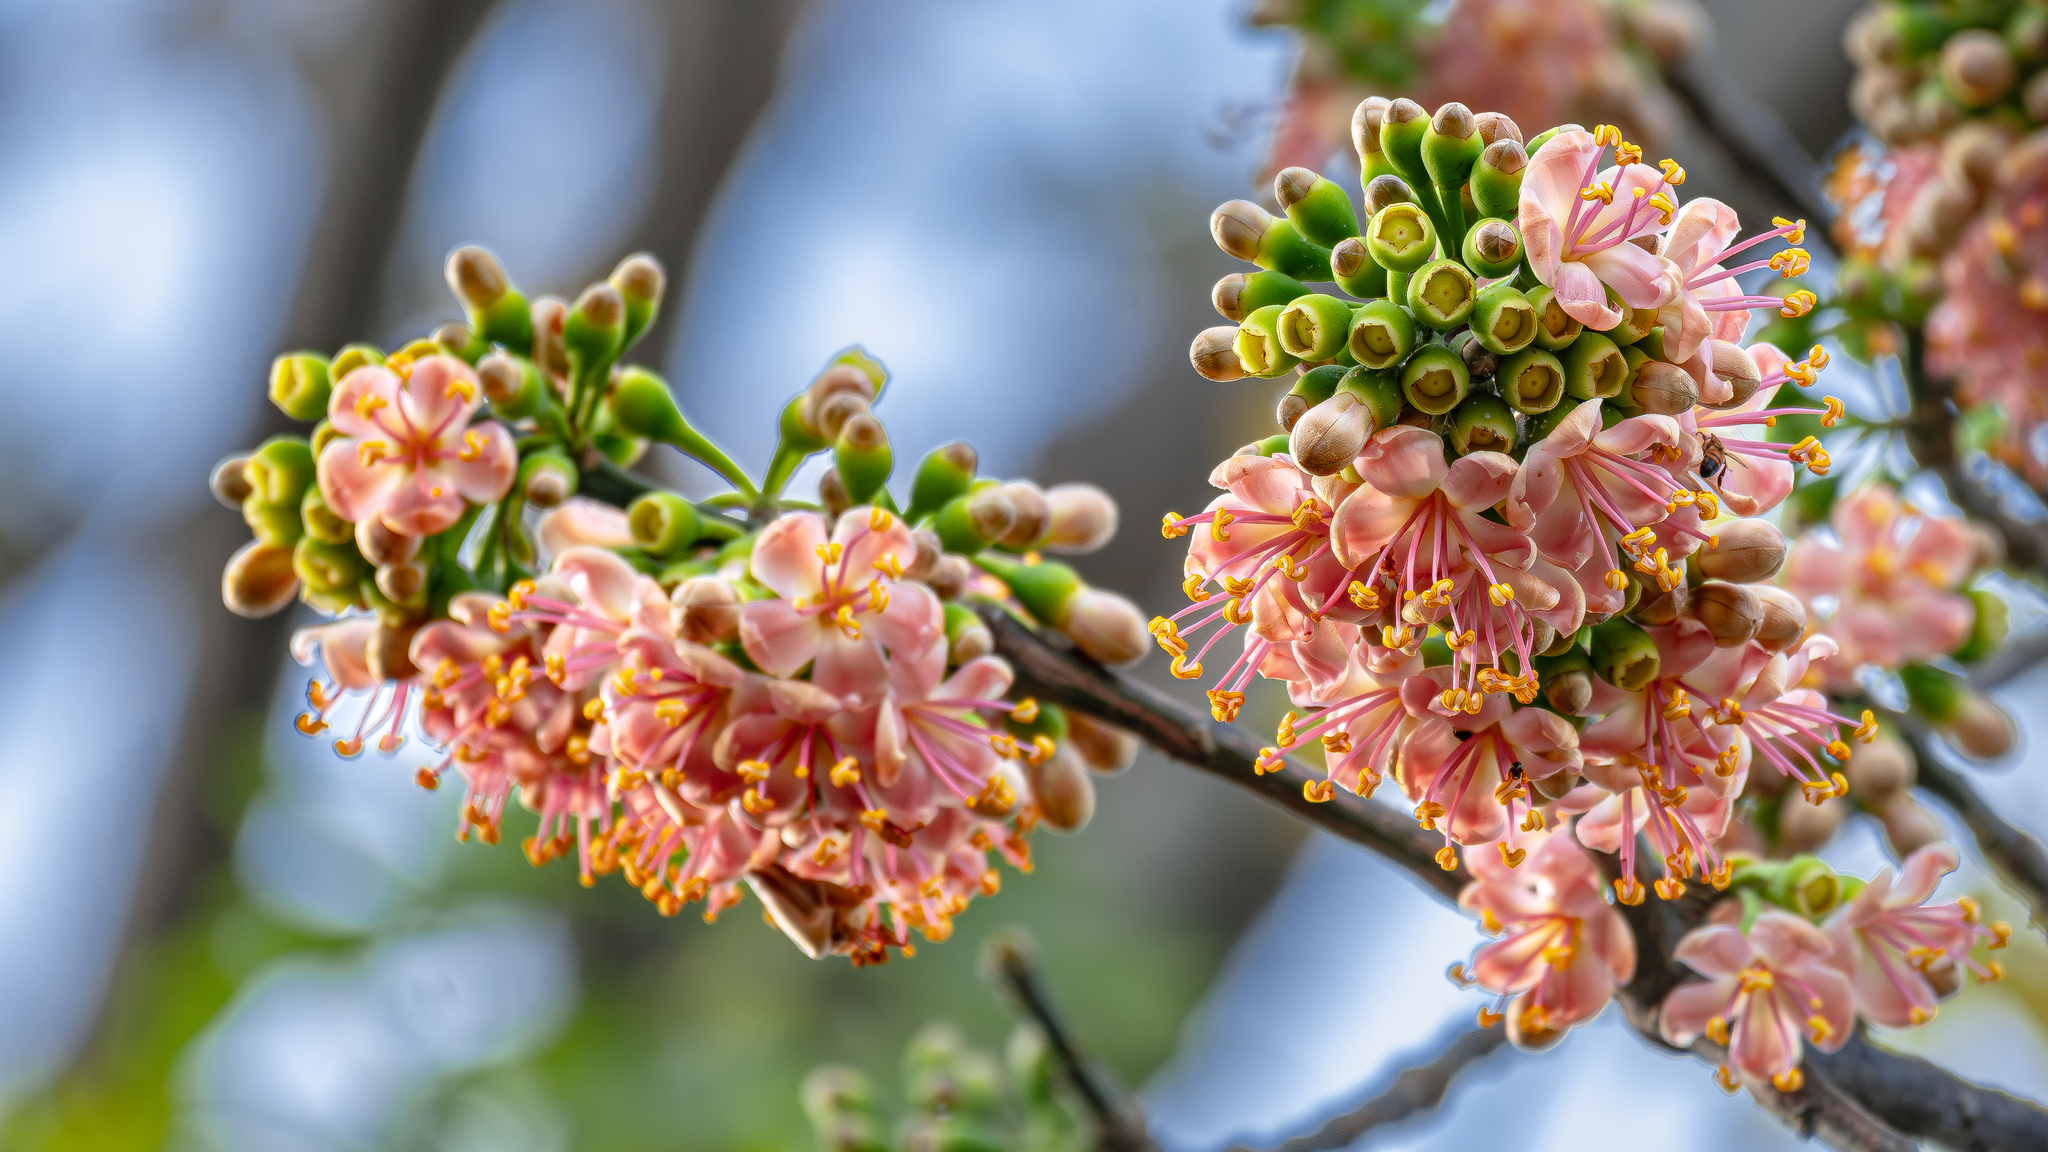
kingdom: Plantae
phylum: Tracheophyta
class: Magnoliopsida
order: Malvales
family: Malvaceae
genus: Ceiba
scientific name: Ceiba pentandra
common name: Kapok
